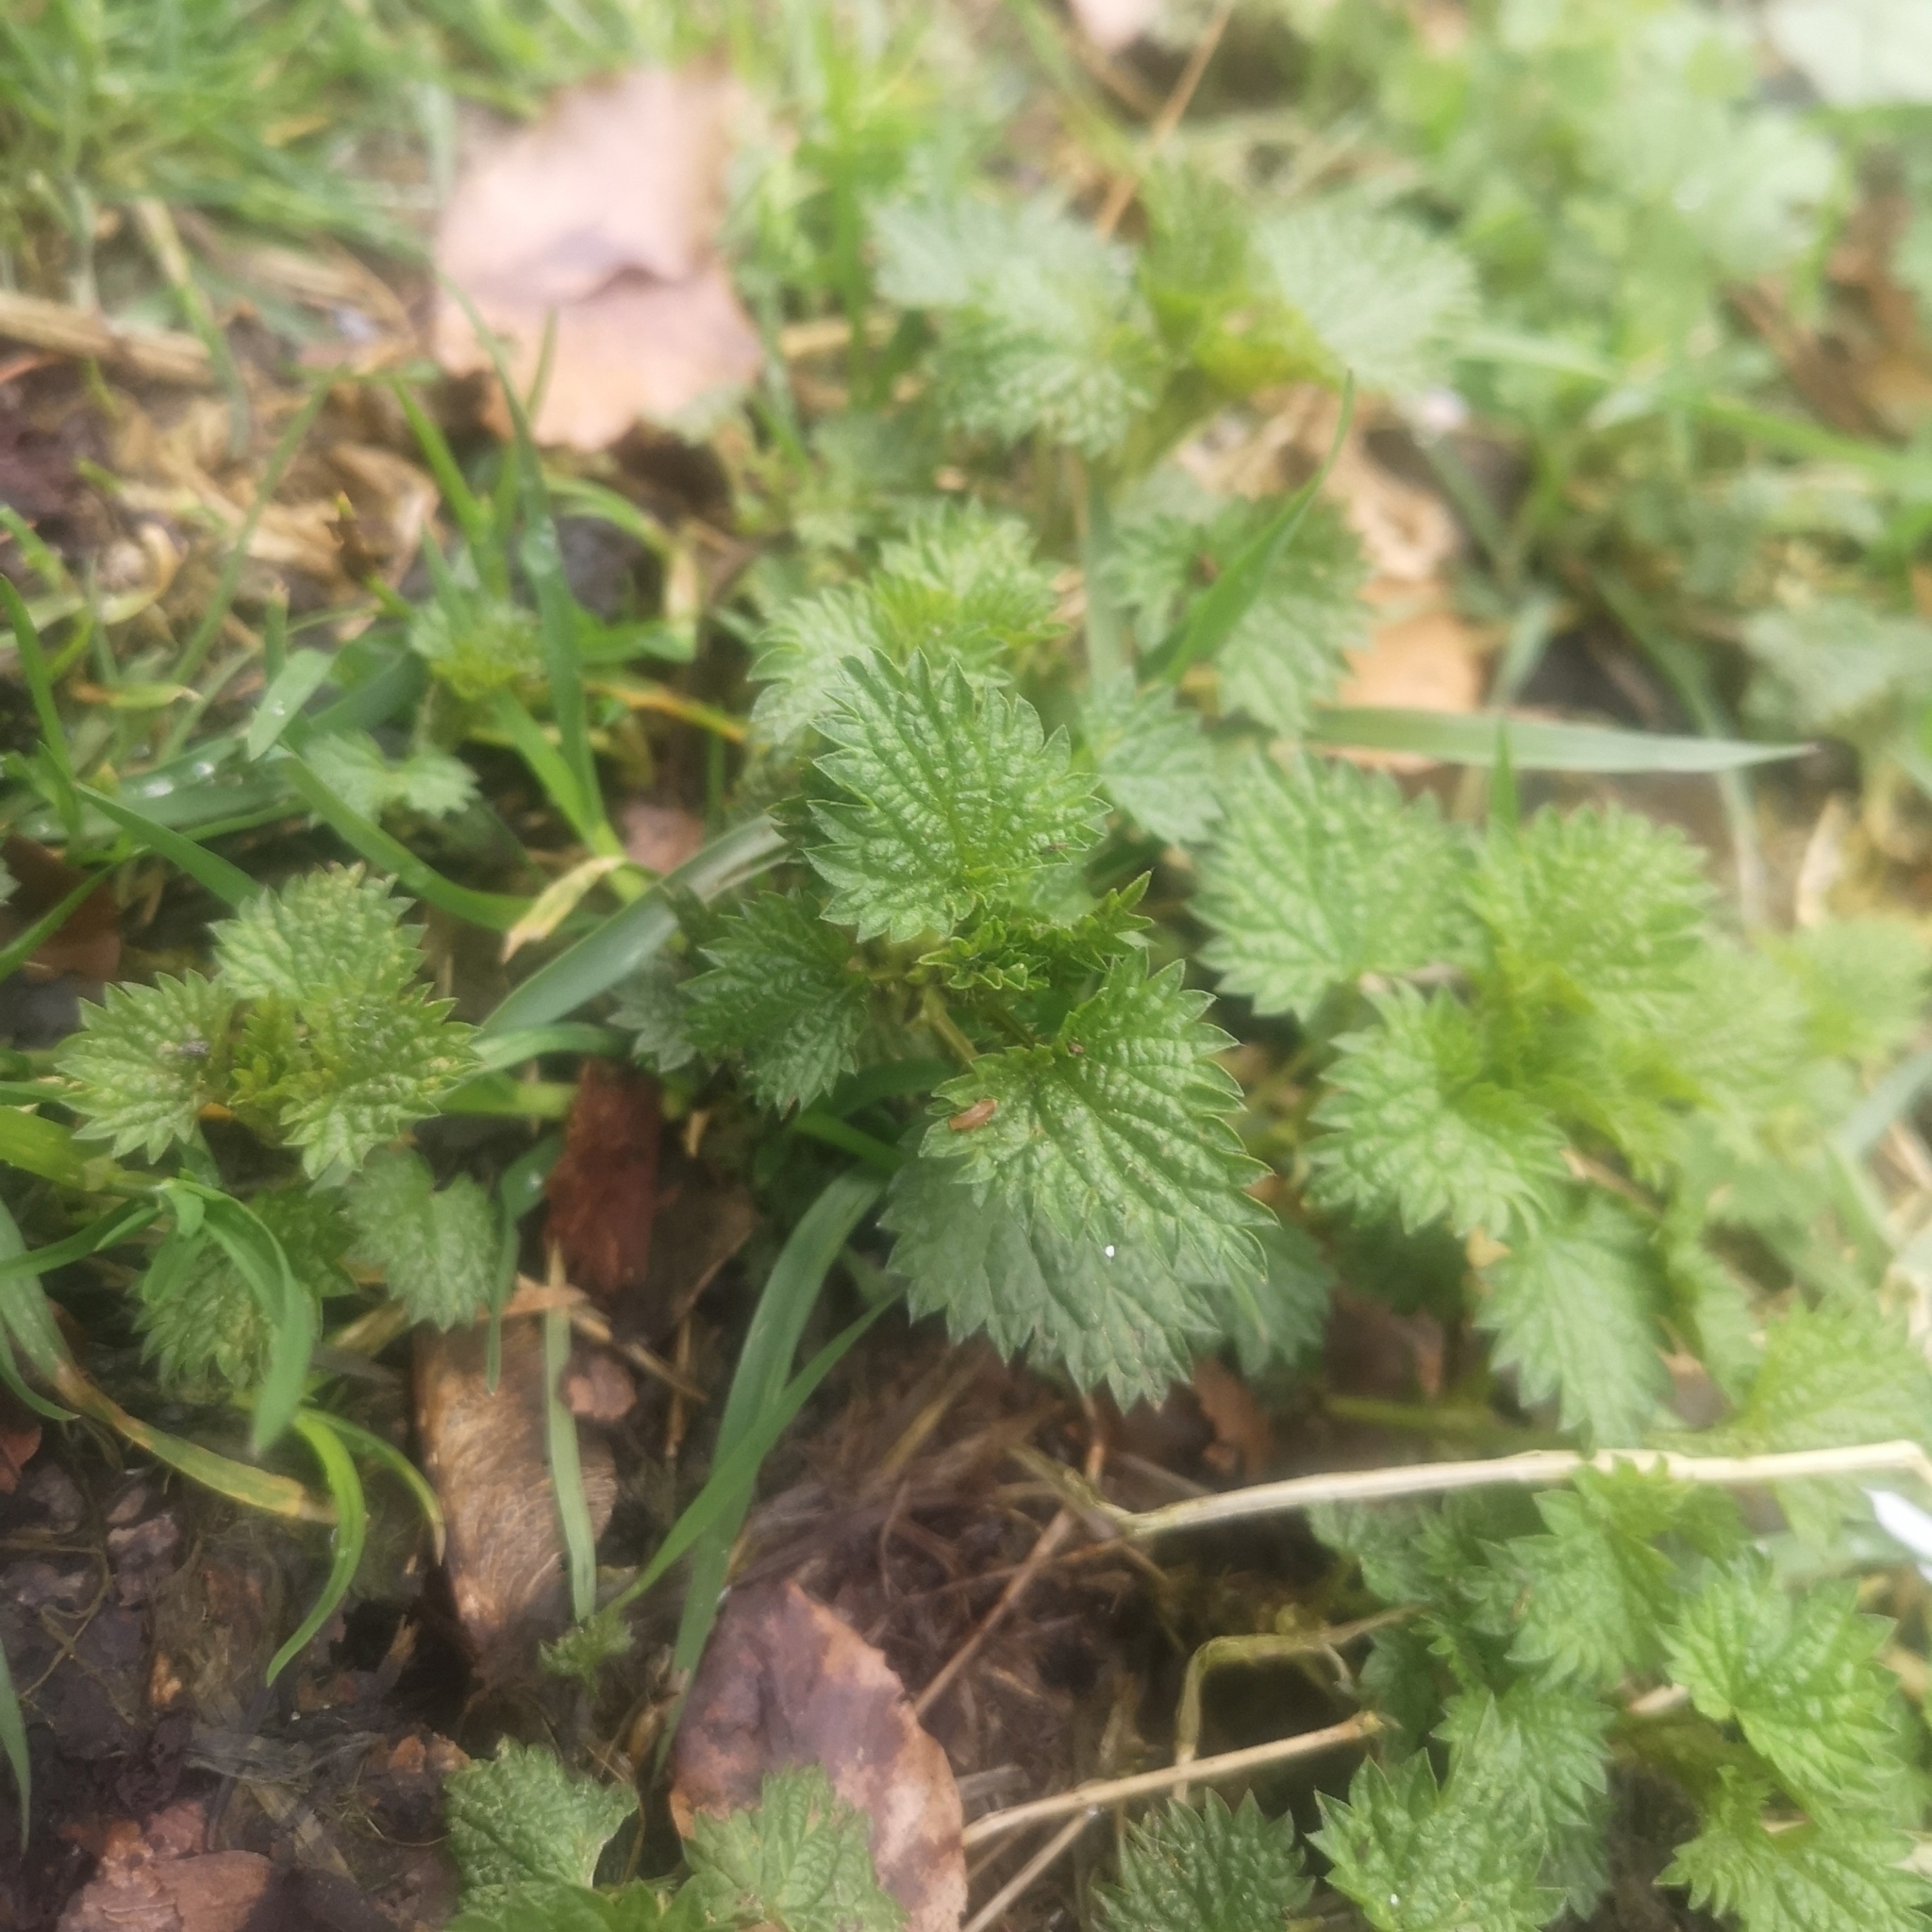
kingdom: Plantae
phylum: Tracheophyta
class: Magnoliopsida
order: Rosales
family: Urticaceae
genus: Urtica
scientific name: Urtica dioica
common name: Common nettle
